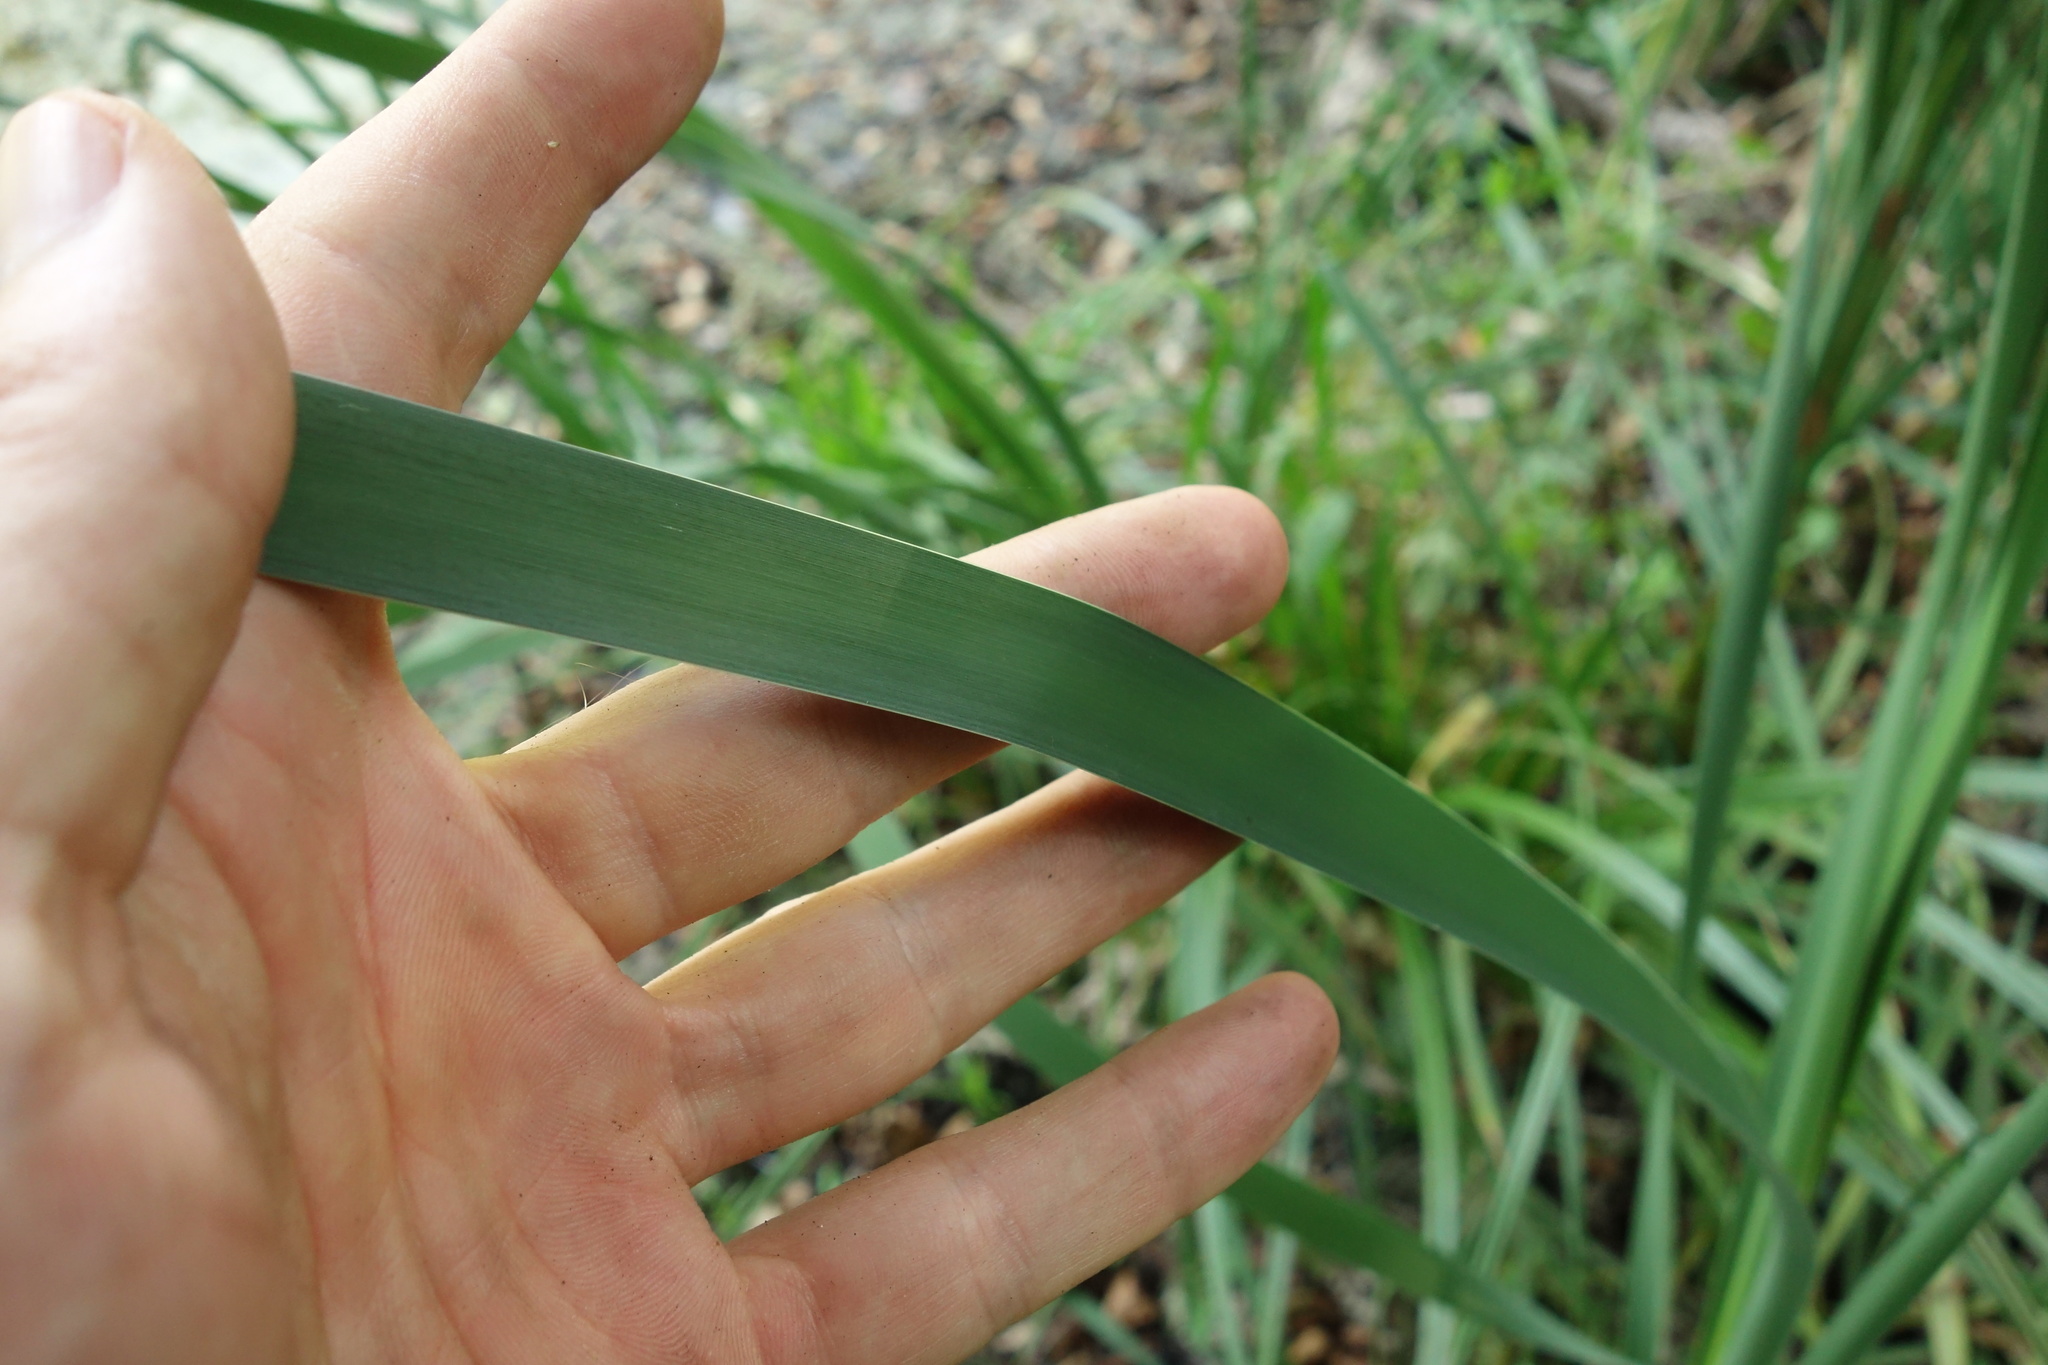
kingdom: Plantae
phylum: Tracheophyta
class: Liliopsida
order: Poales
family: Typhaceae
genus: Typha
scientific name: Typha latifolia
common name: Broadleaf cattail
